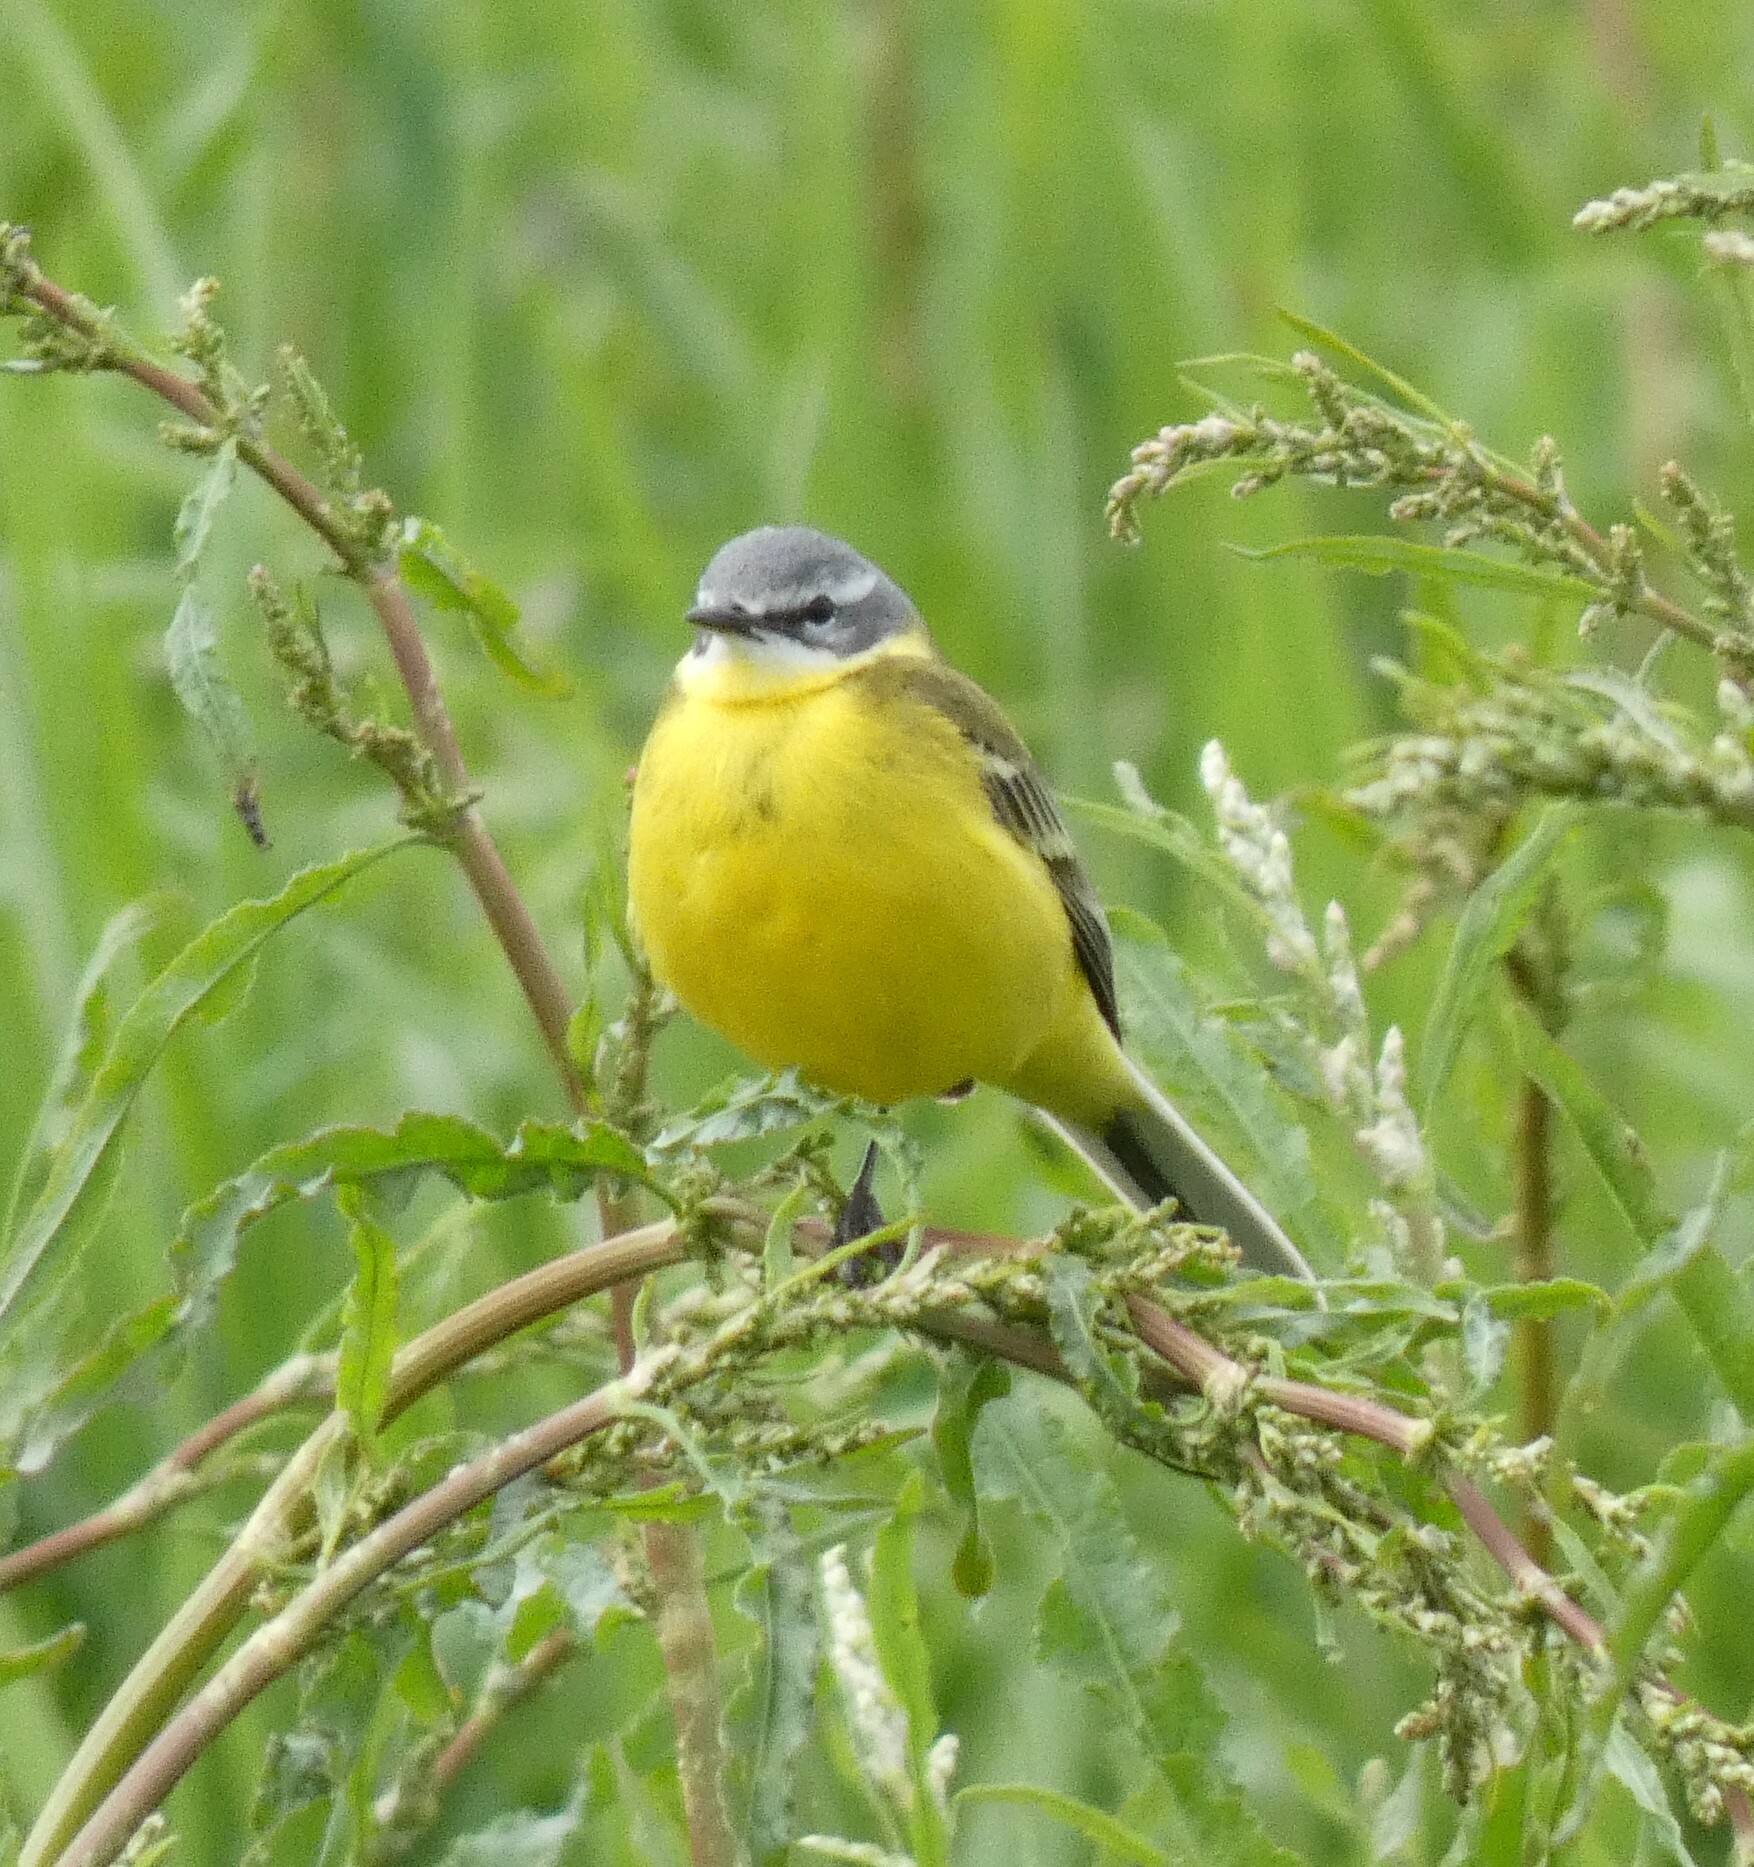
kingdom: Animalia
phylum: Chordata
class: Aves
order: Passeriformes
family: Motacillidae
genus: Motacilla
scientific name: Motacilla flava
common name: Western yellow wagtail
